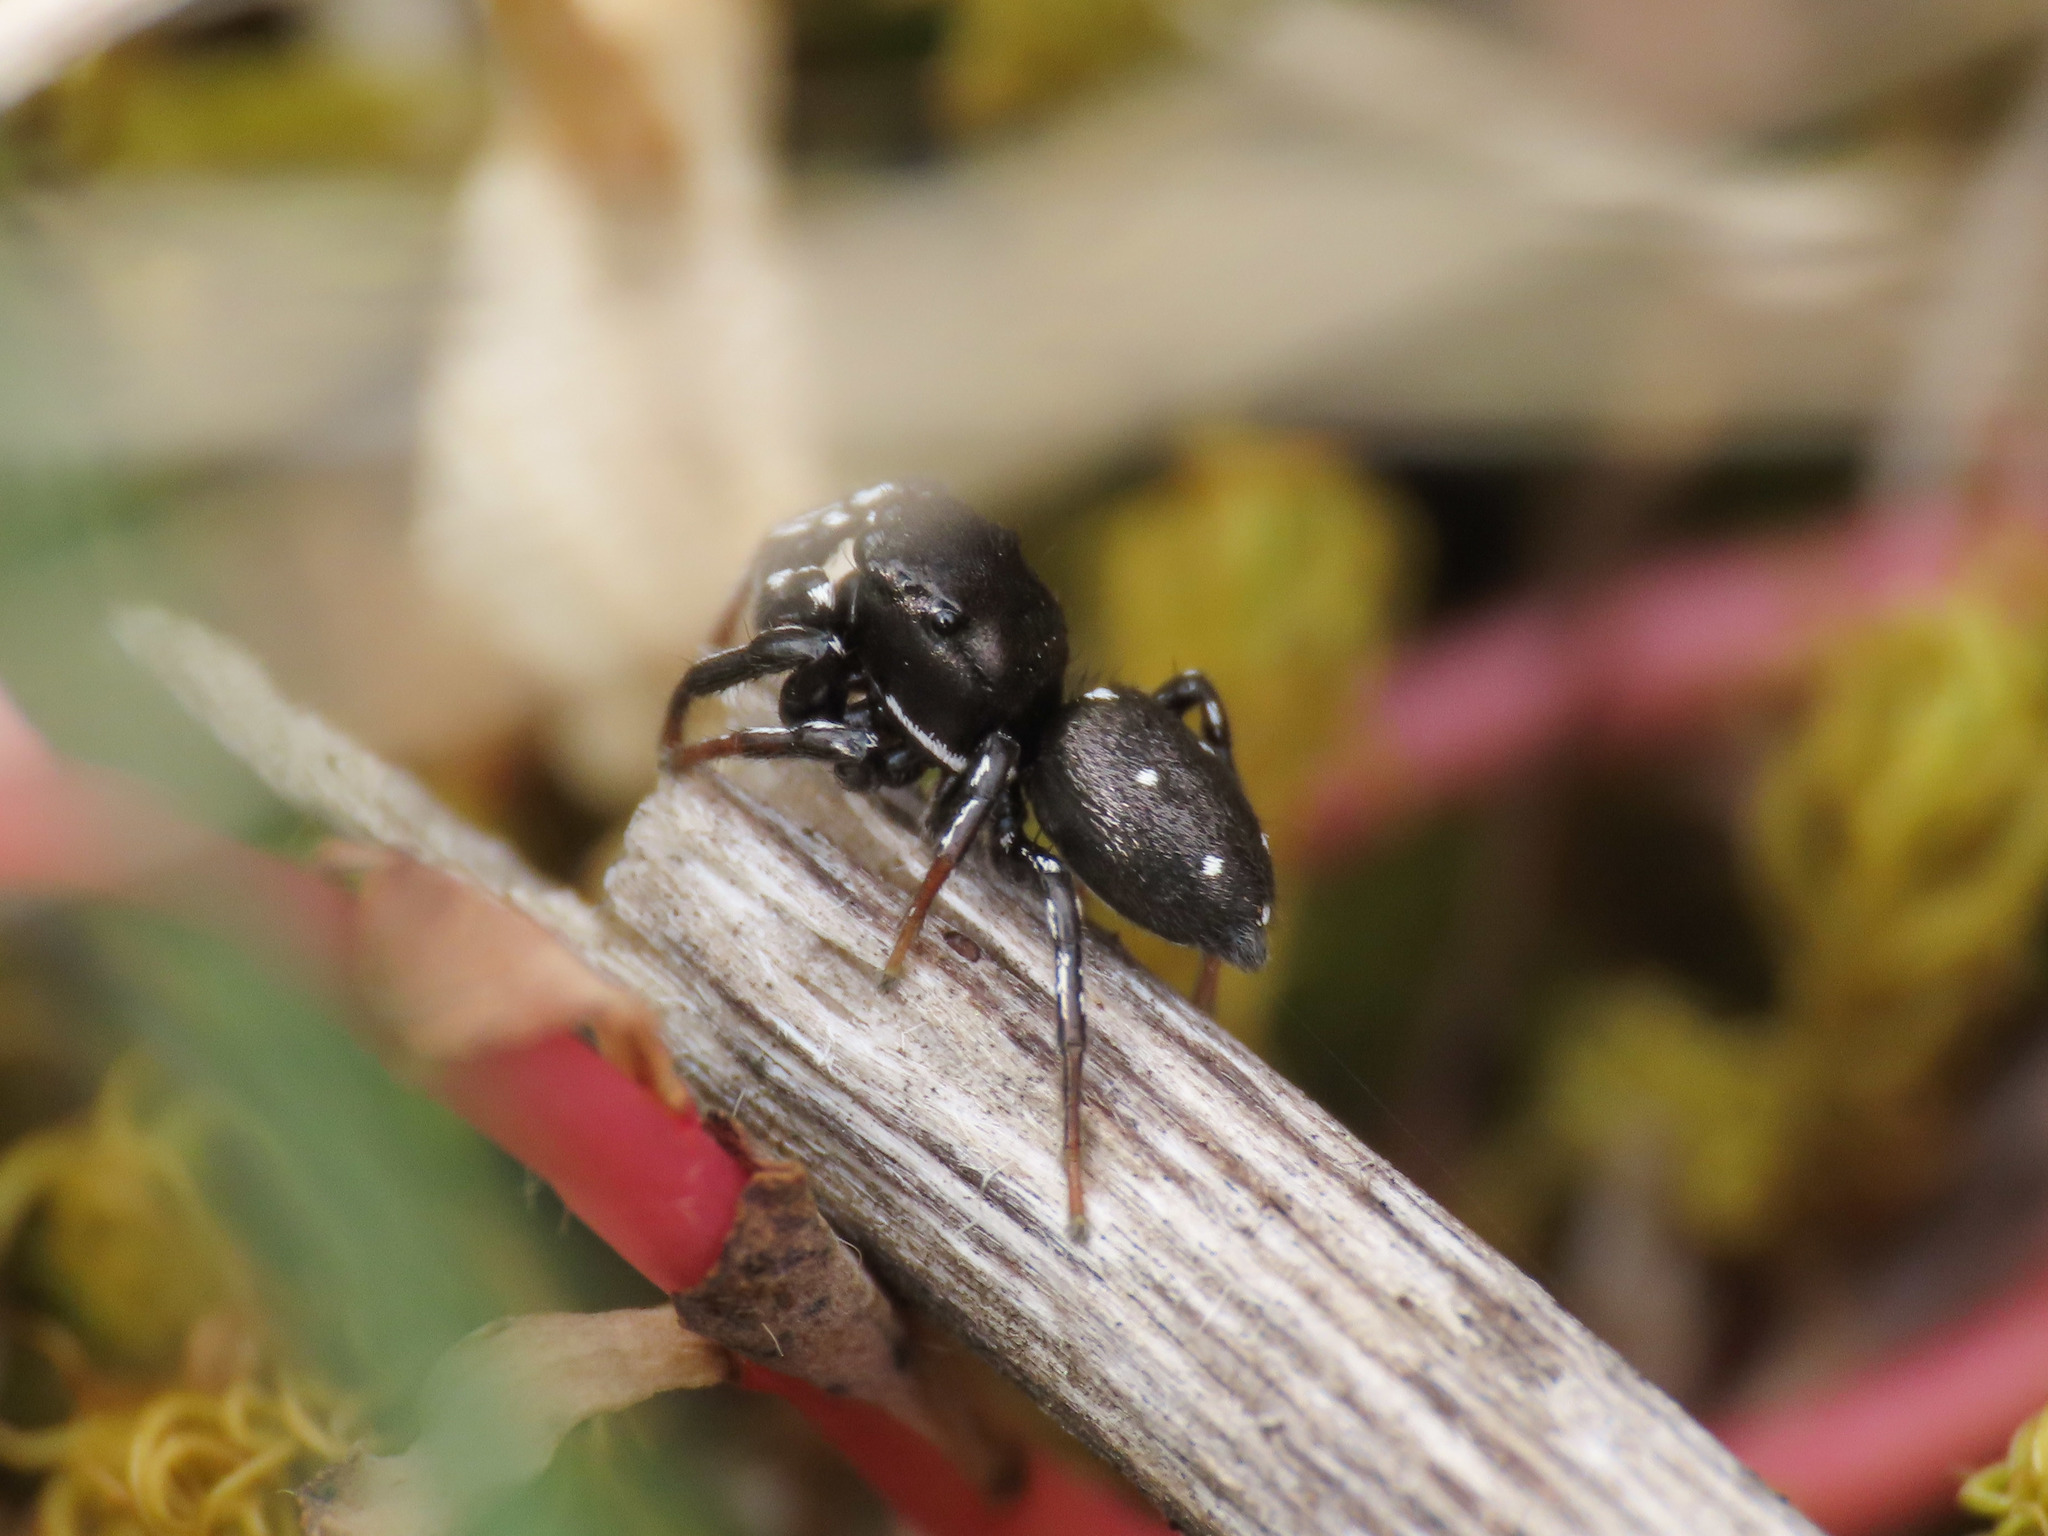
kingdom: Animalia
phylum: Arthropoda
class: Arachnida
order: Araneae
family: Salticidae
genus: Heliophanus
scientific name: Heliophanus lineiventris
